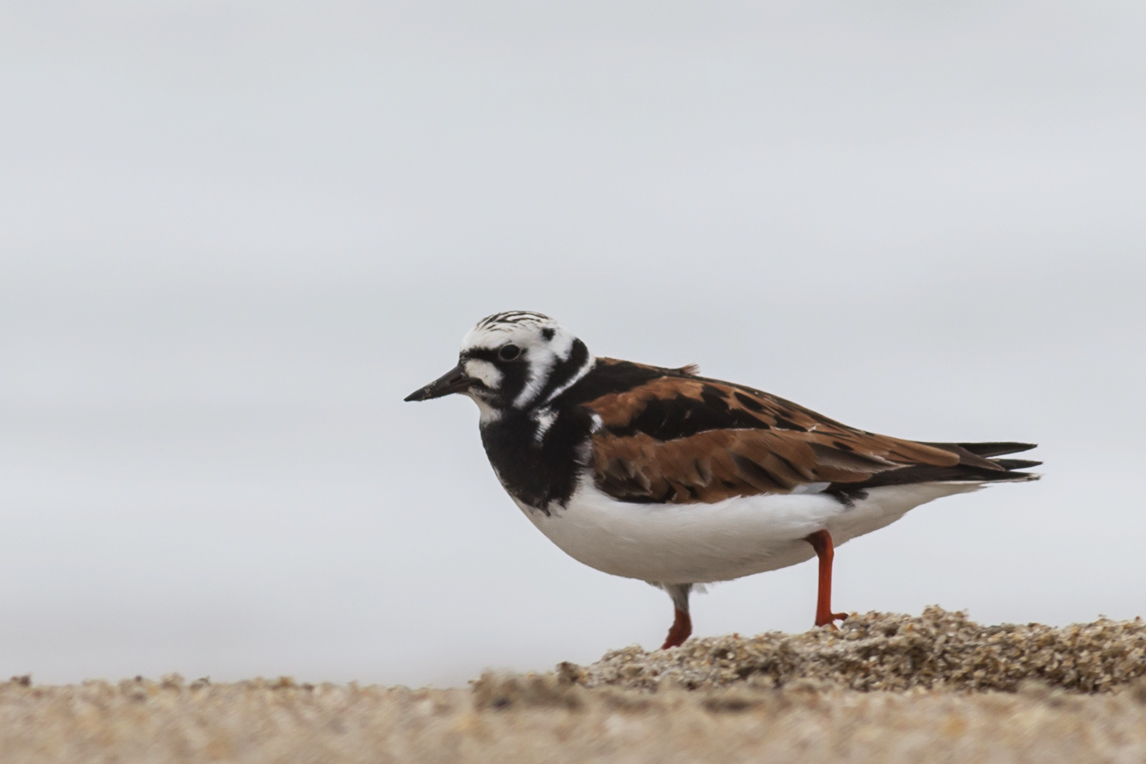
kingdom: Animalia
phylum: Chordata
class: Aves
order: Charadriiformes
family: Scolopacidae
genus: Arenaria
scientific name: Arenaria interpres
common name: Ruddy turnstone
